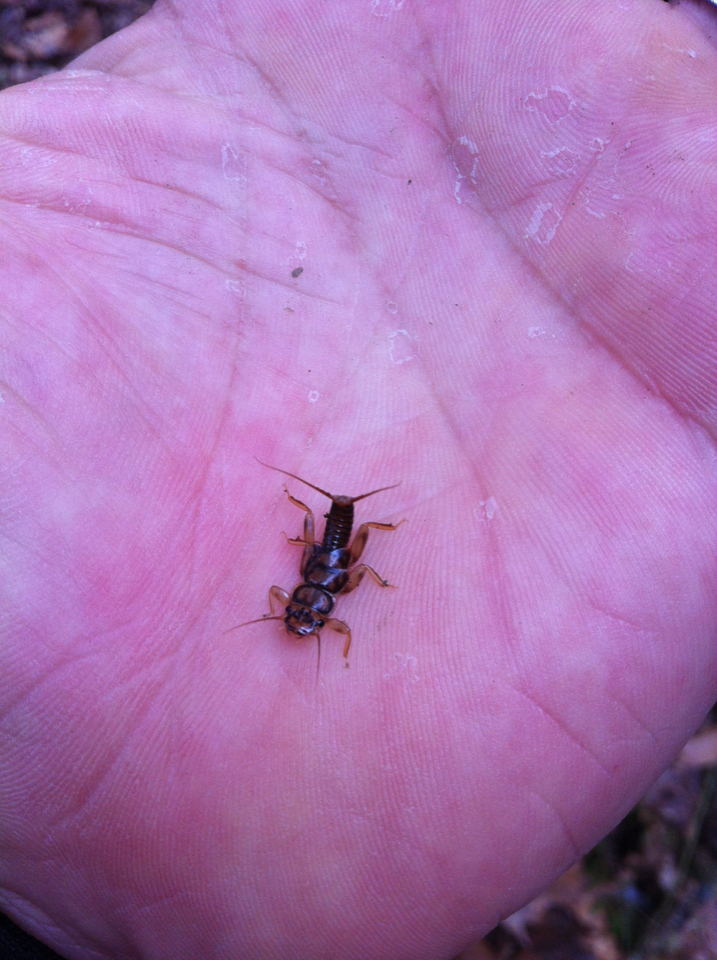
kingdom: Animalia
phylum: Arthropoda
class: Insecta
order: Plecoptera
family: Perlidae
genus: Eccoptura
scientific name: Eccoptura xanthenes
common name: Yellow stone
